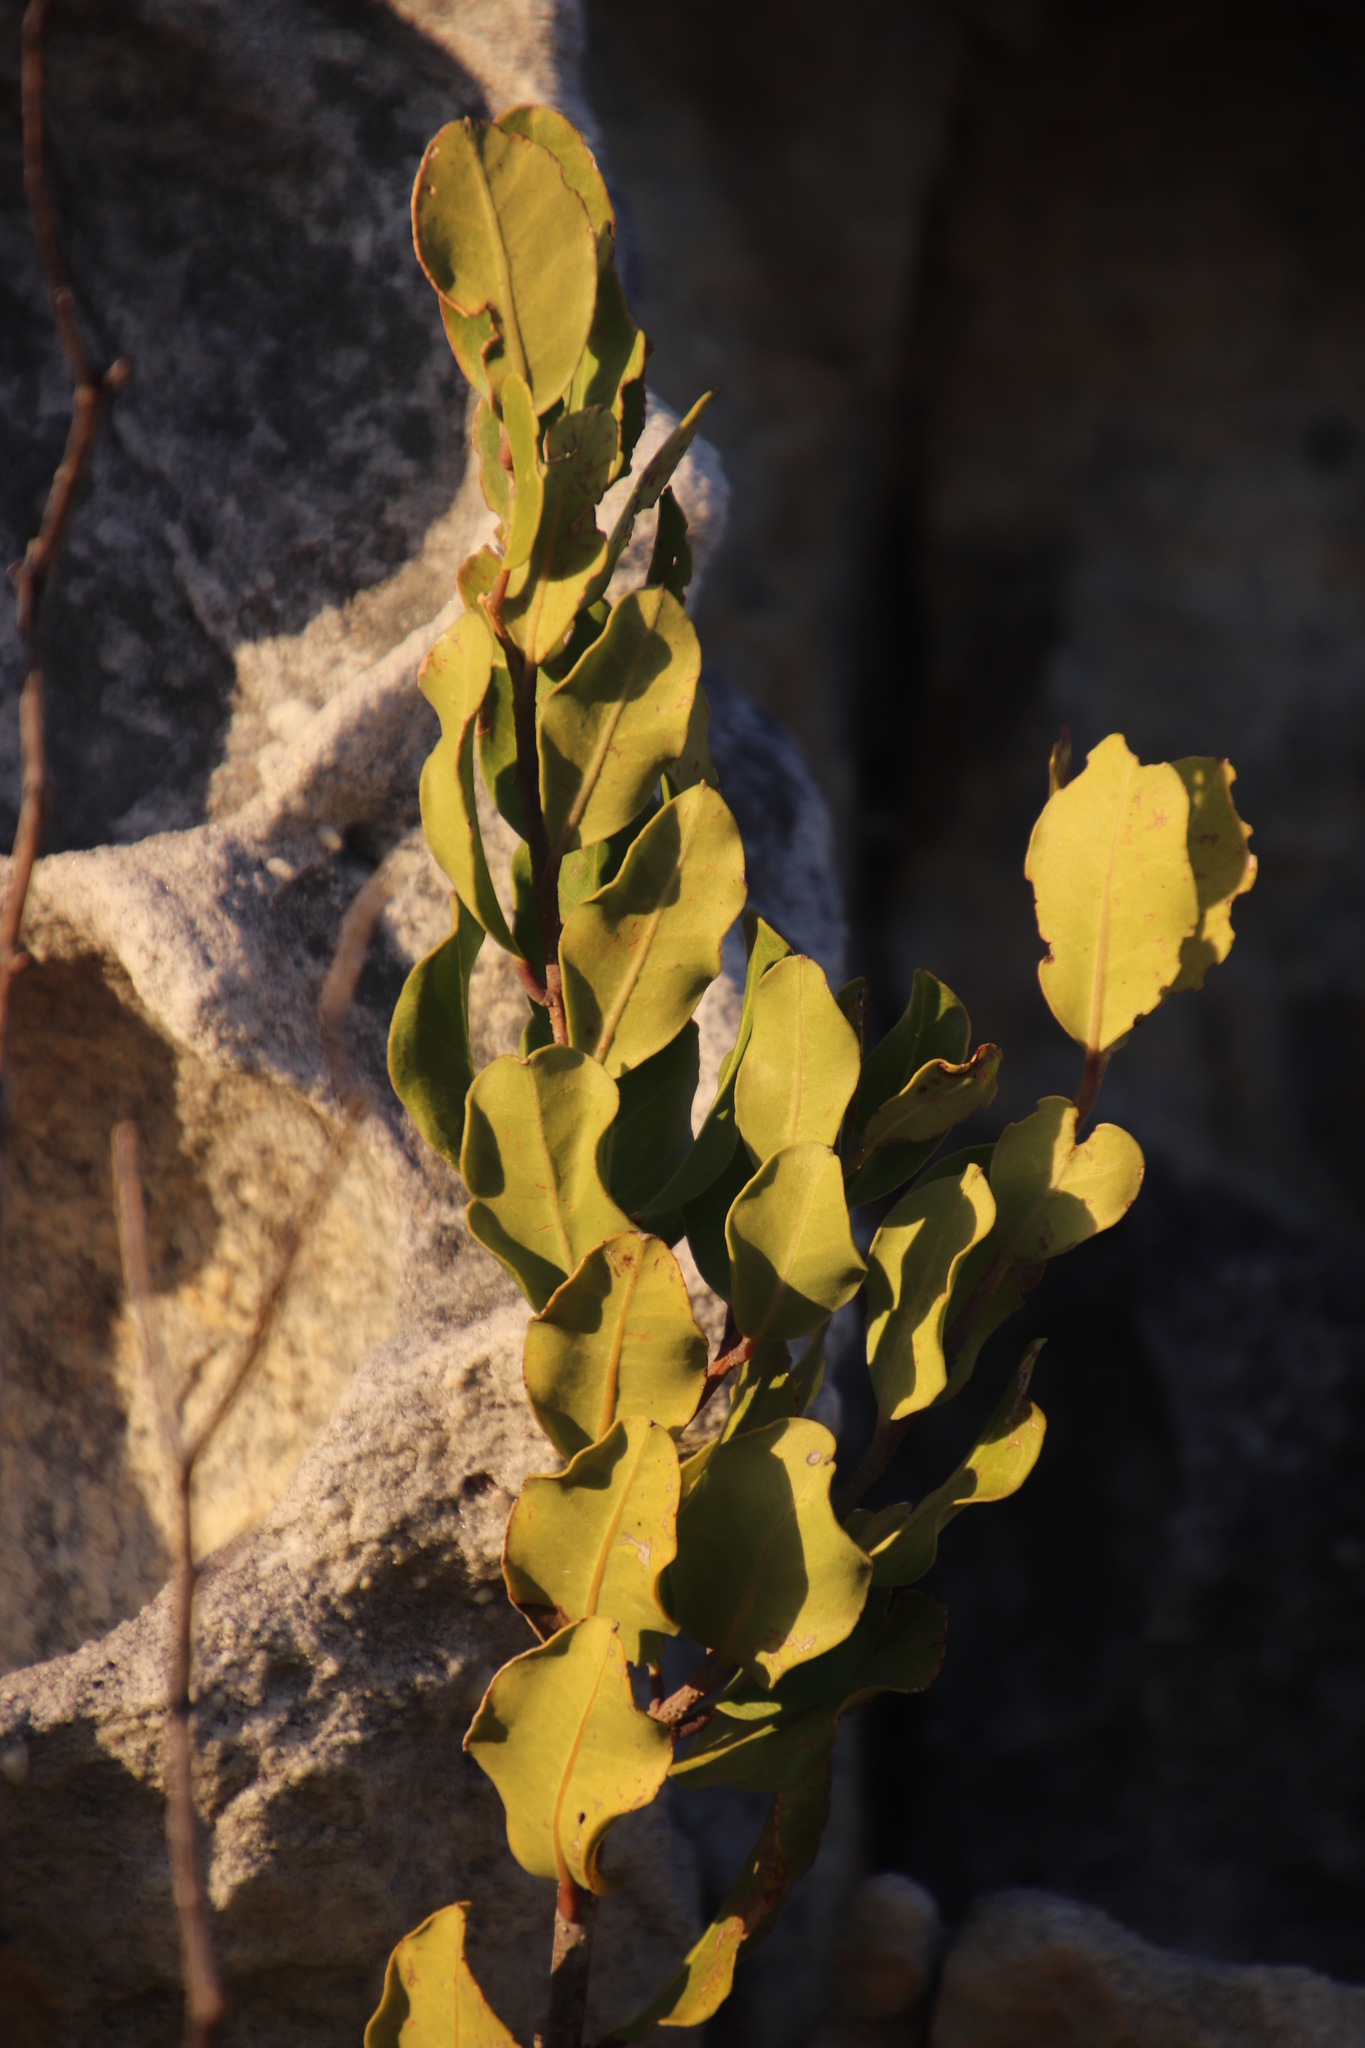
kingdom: Plantae
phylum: Tracheophyta
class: Magnoliopsida
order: Lamiales
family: Oleaceae
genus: Olea
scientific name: Olea capensis
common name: Black ironwood
